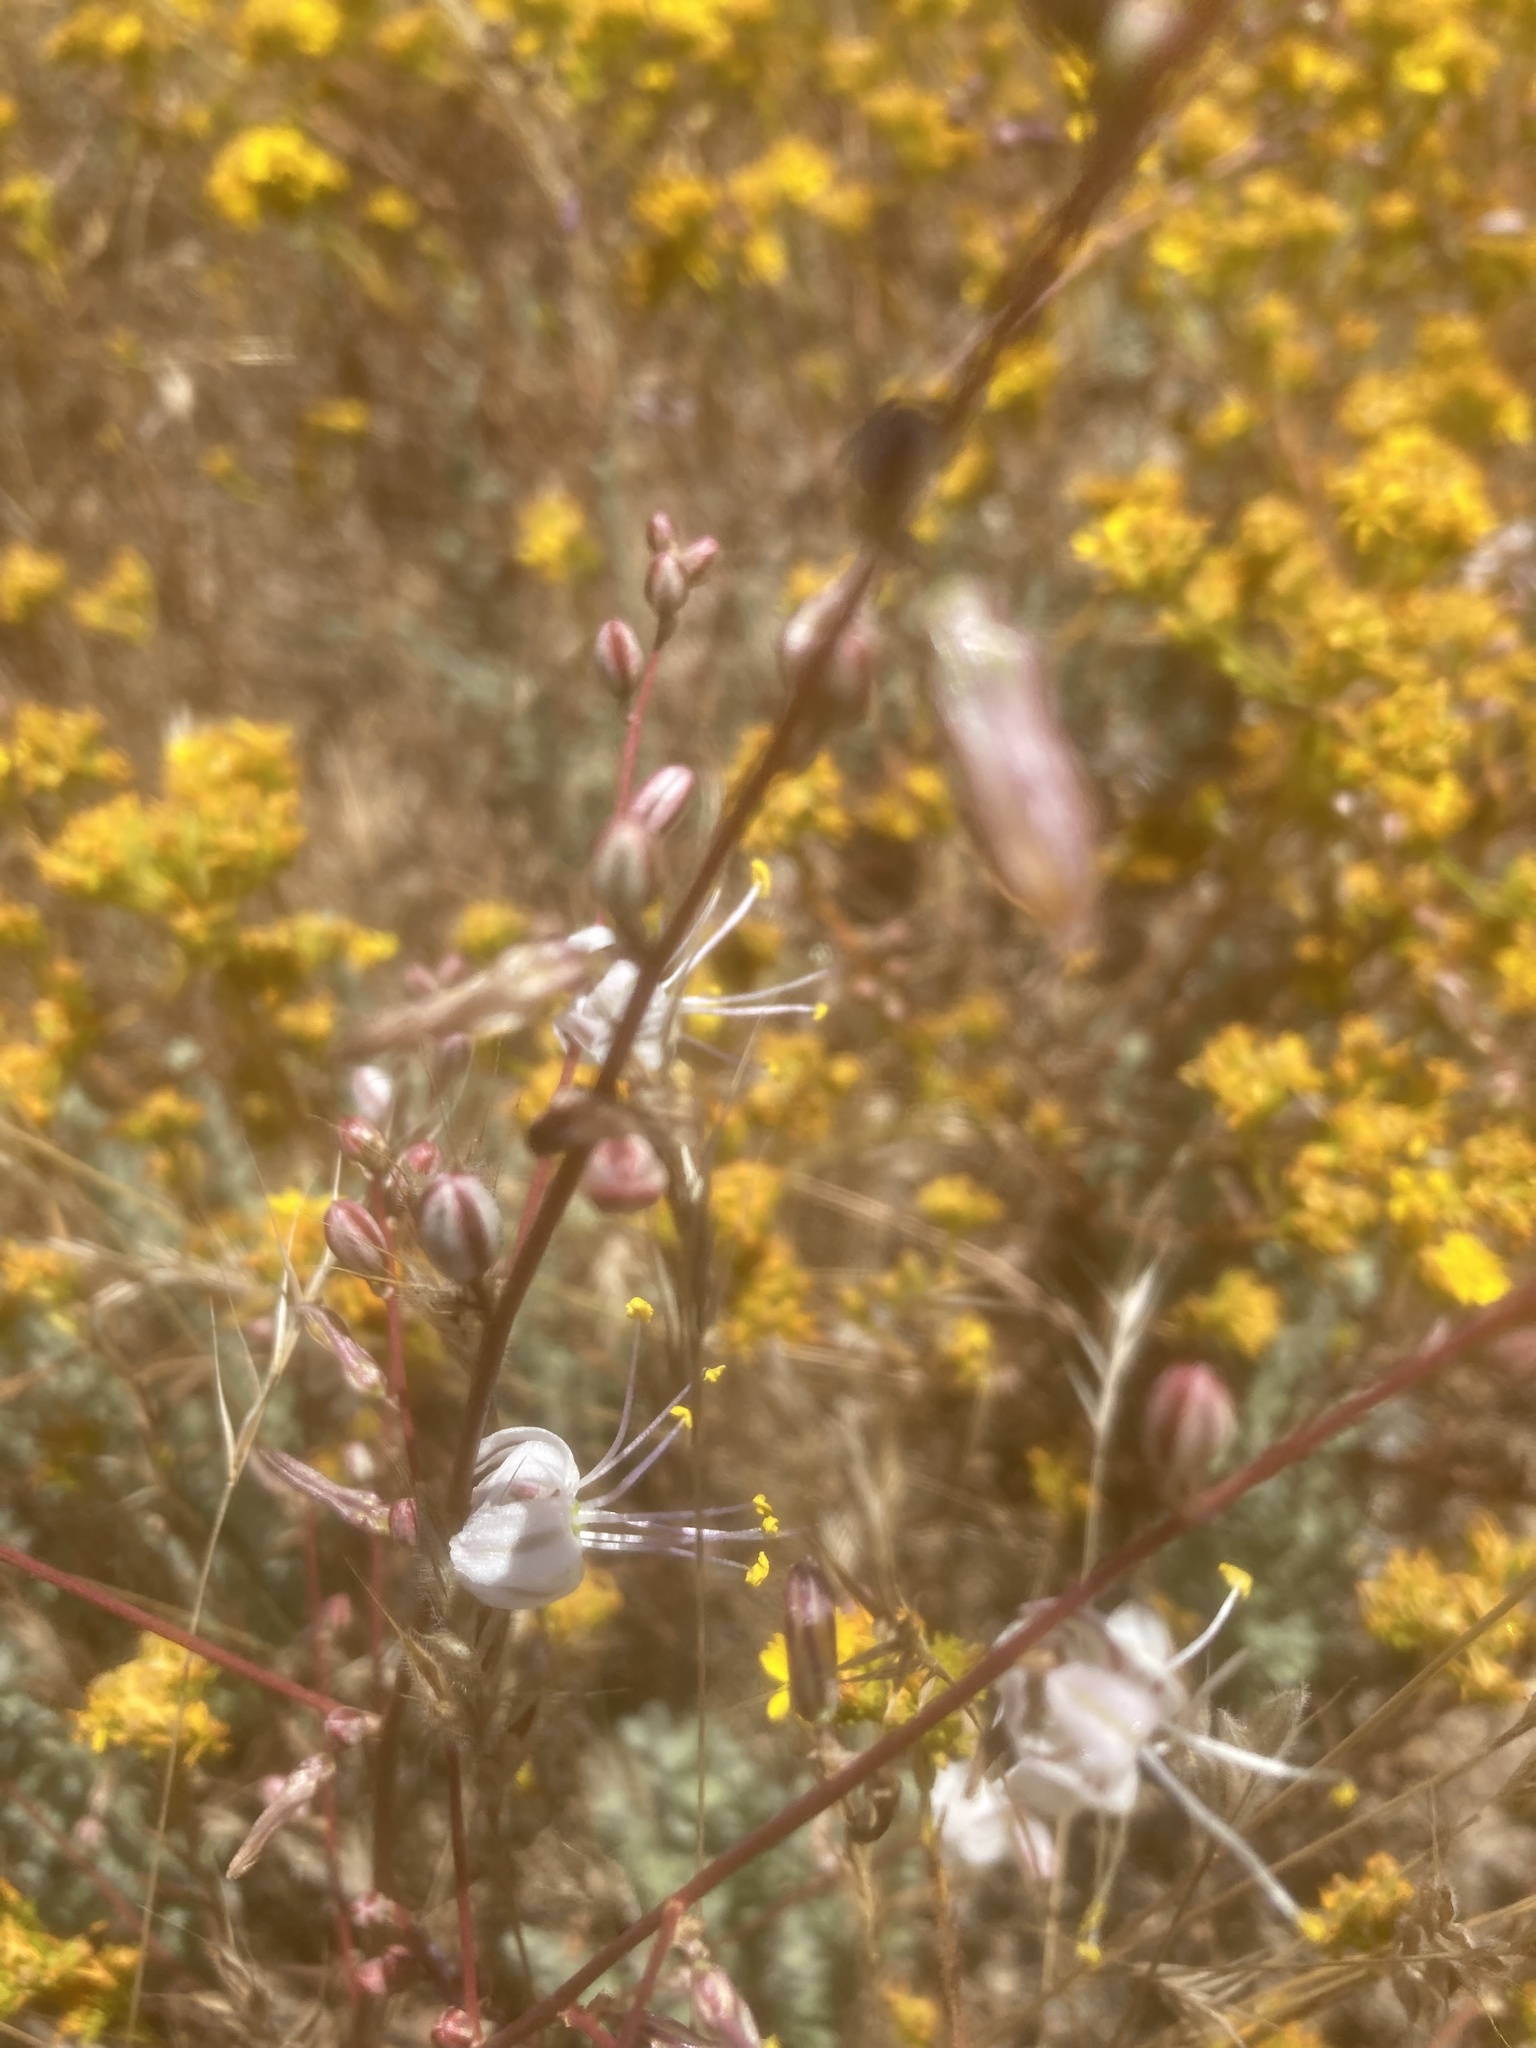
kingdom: Plantae
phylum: Tracheophyta
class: Liliopsida
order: Asparagales
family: Asparagaceae
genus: Hooveria
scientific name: Hooveria parviflora
